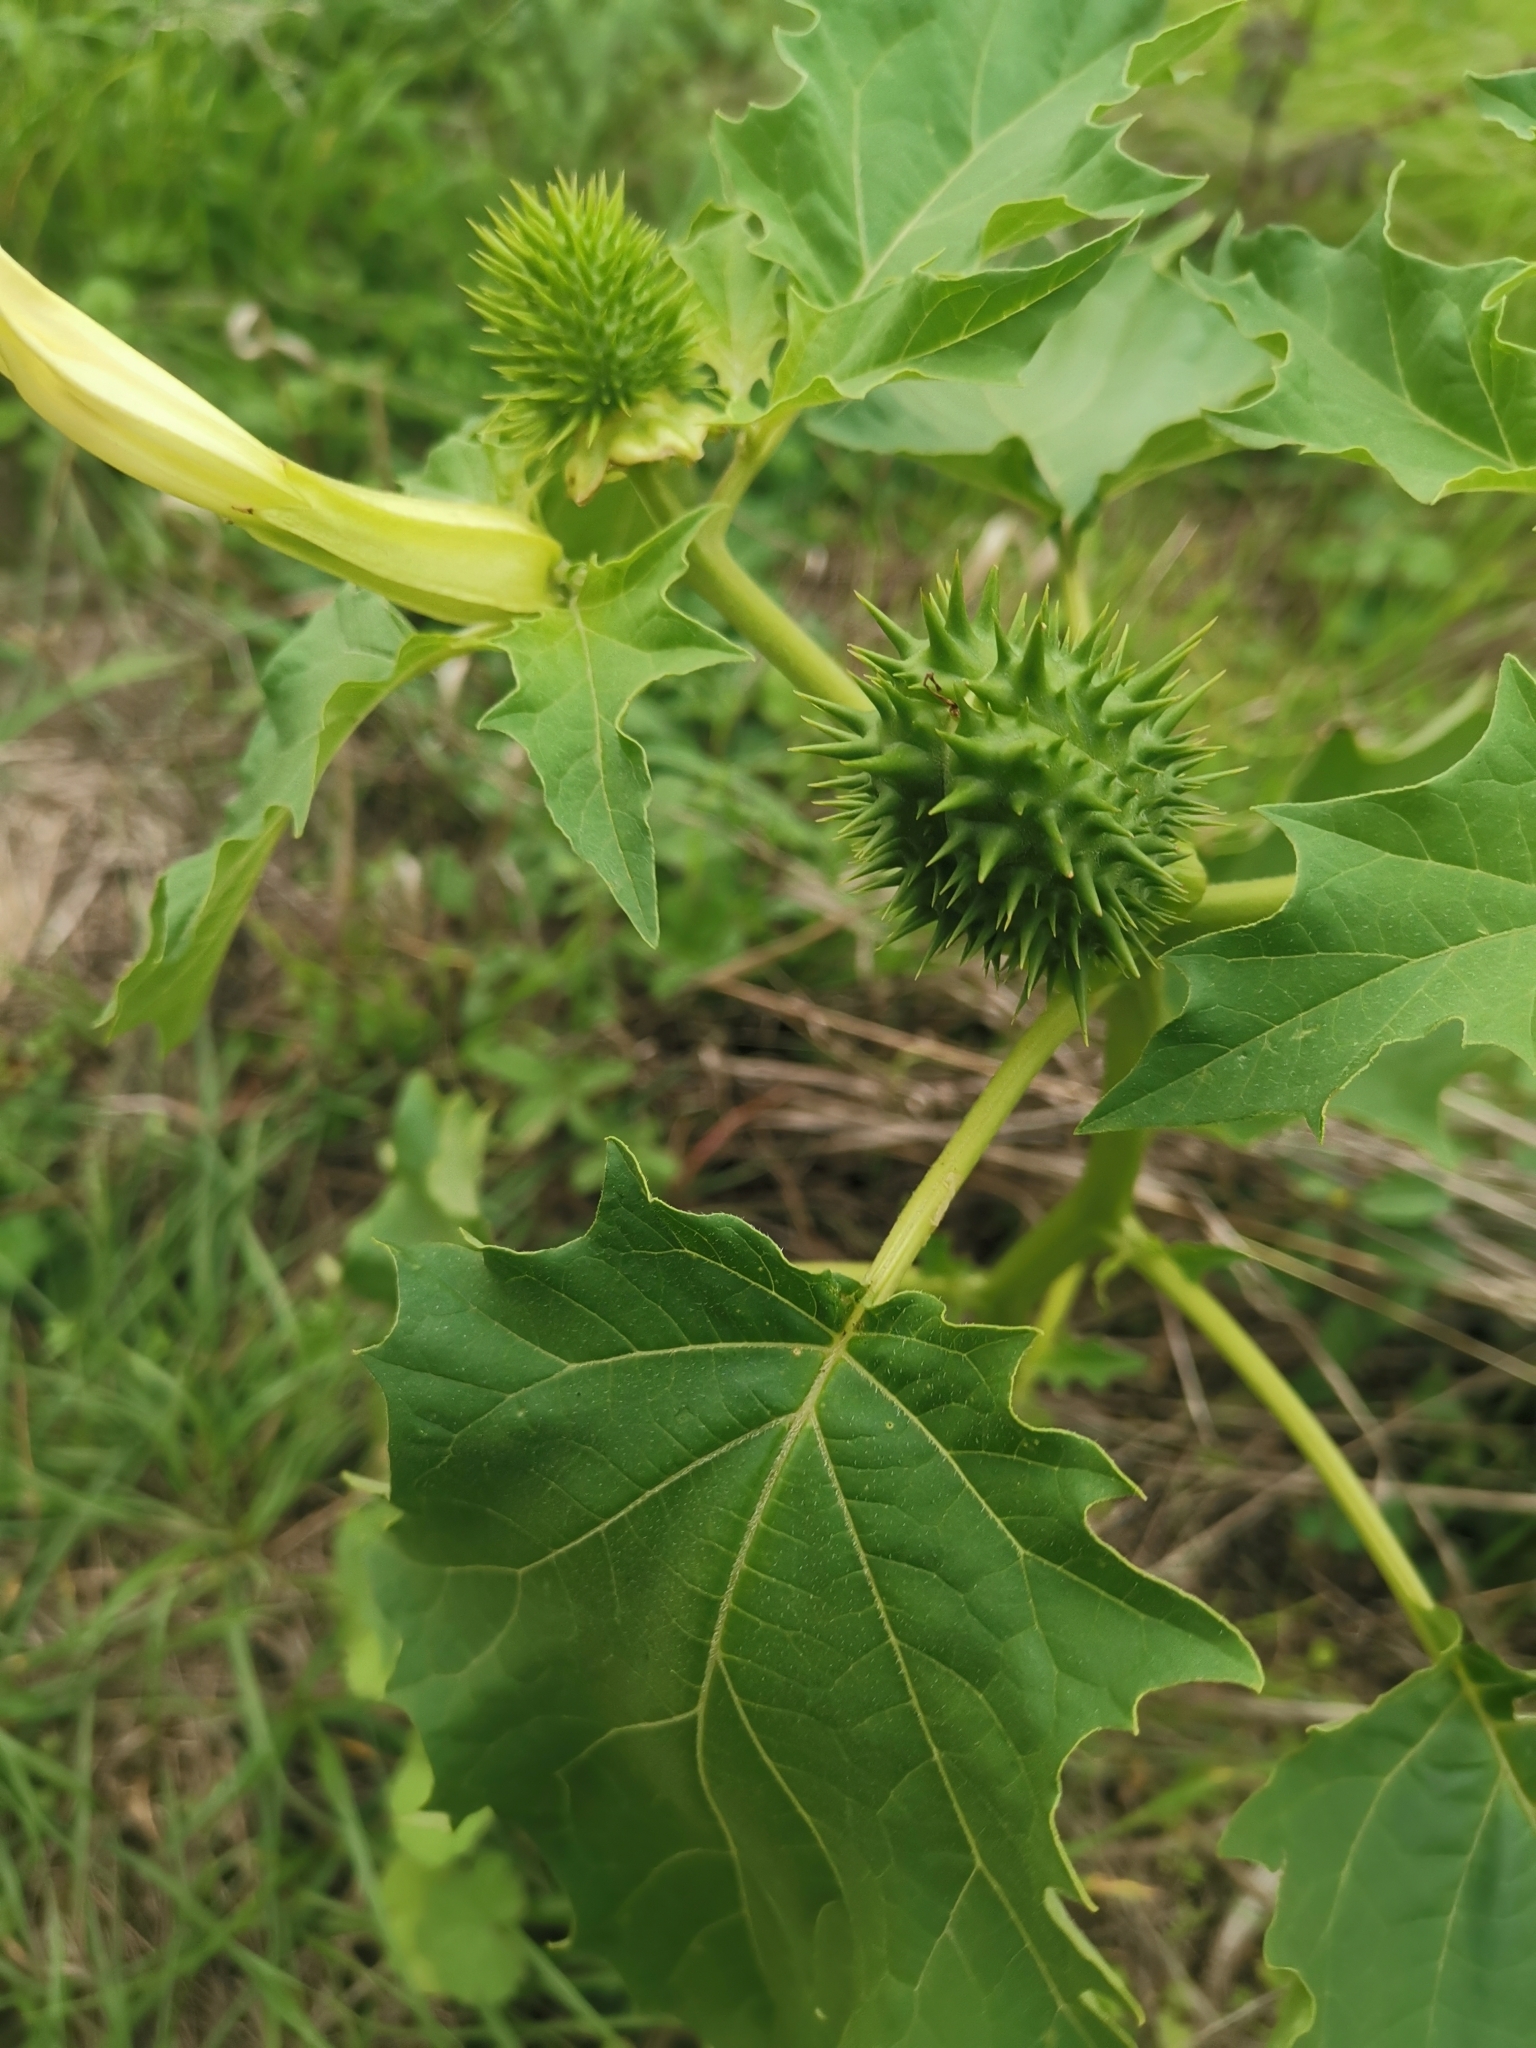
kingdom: Plantae
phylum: Tracheophyta
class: Magnoliopsida
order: Solanales
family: Solanaceae
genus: Datura
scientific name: Datura stramonium
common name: Thorn-apple
